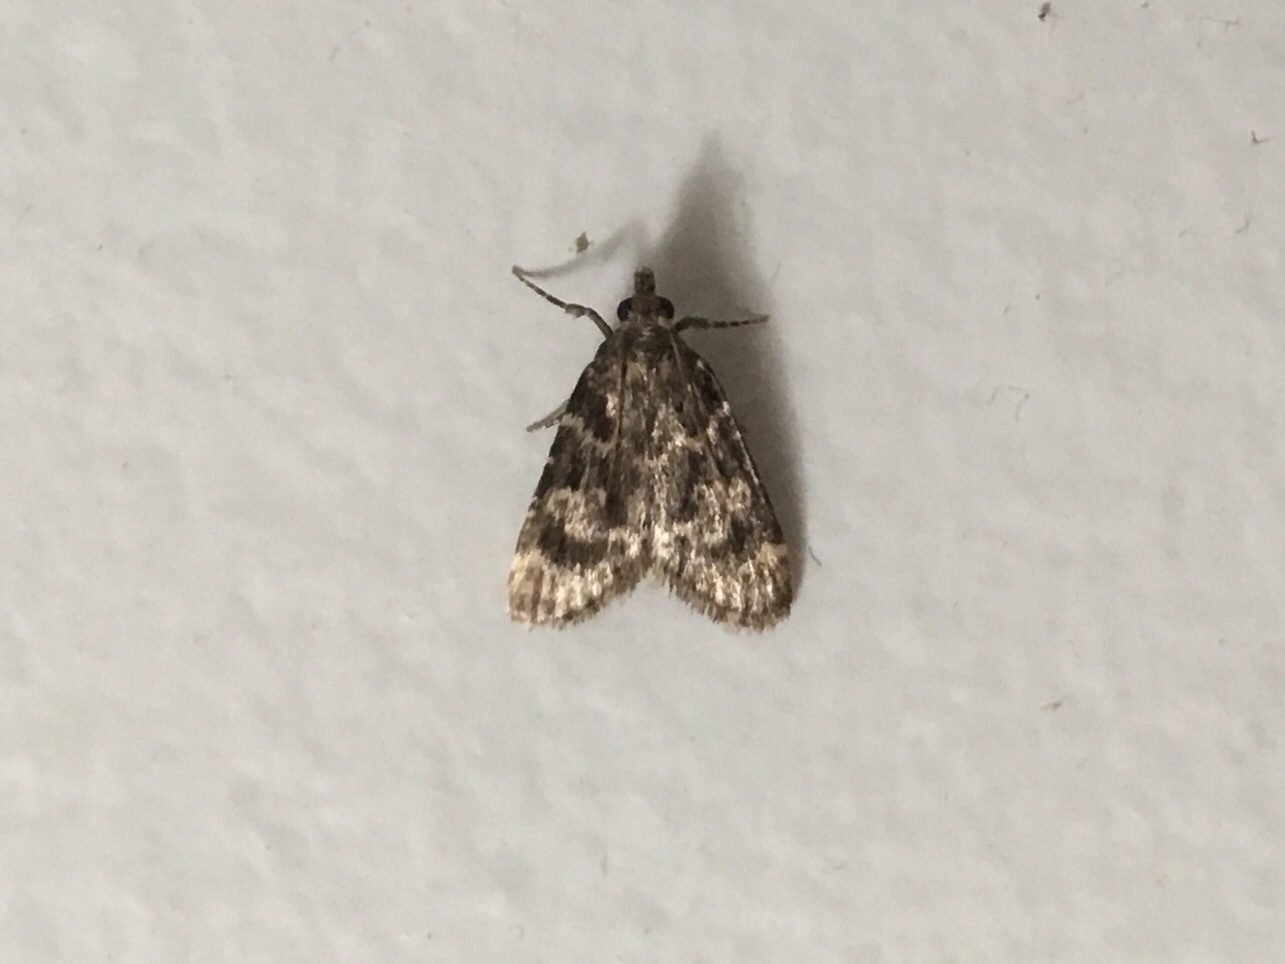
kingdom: Animalia
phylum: Arthropoda
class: Insecta
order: Lepidoptera
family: Pyralidae
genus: Aglossa
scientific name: Aglossa caprealis
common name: Small tabby
